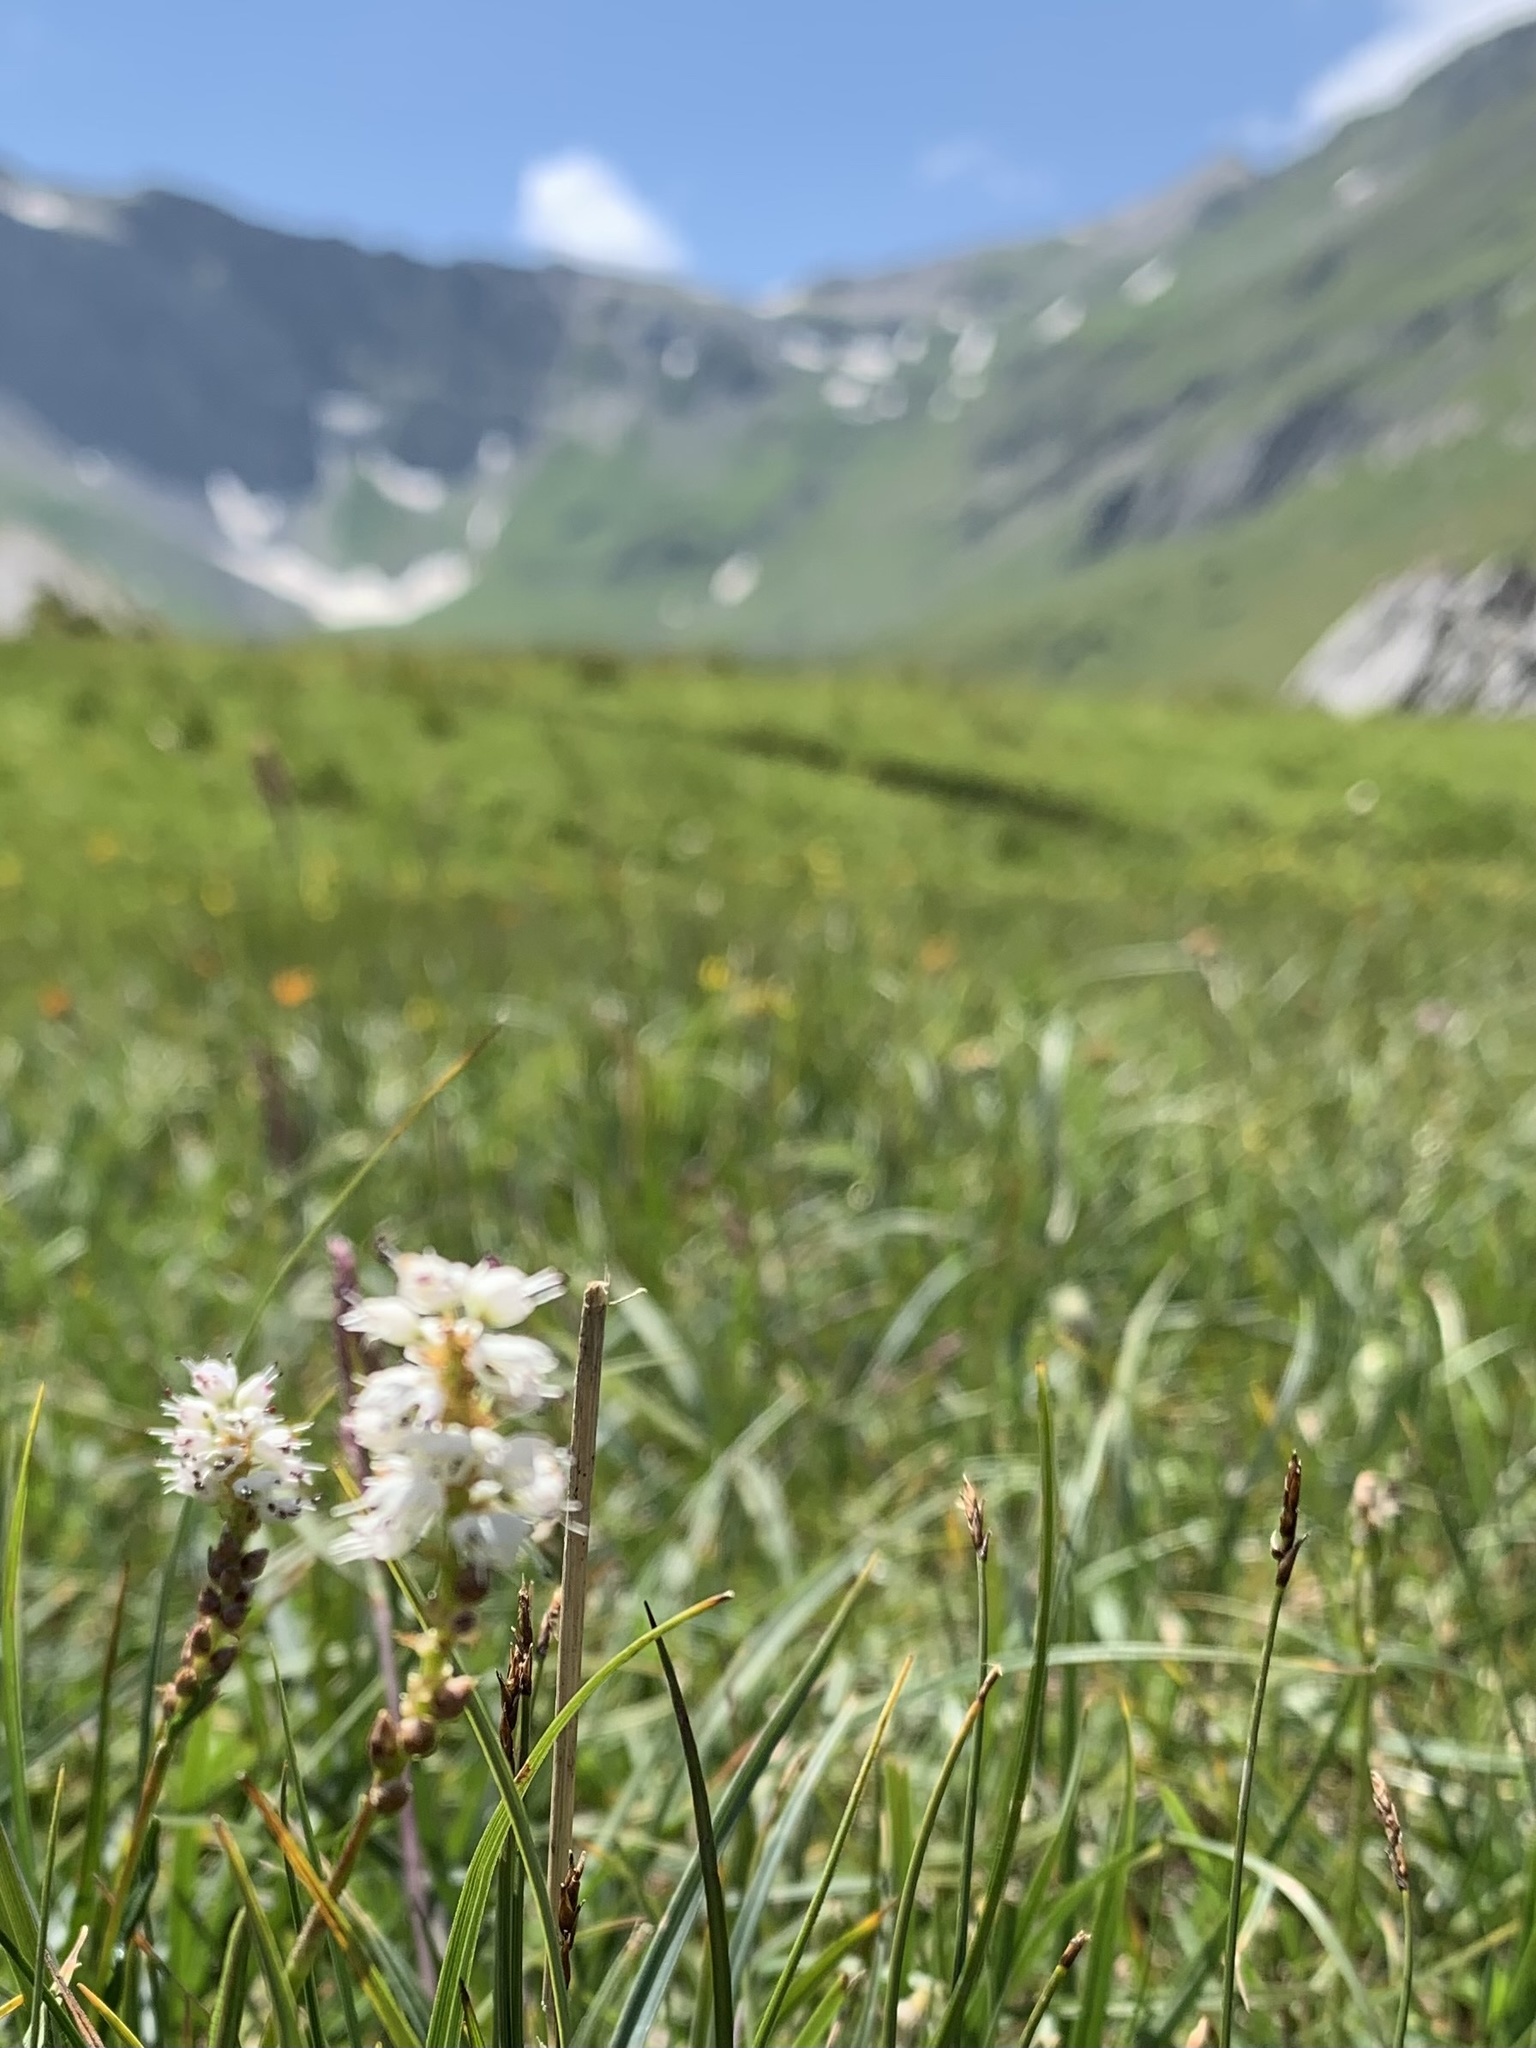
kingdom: Plantae
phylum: Tracheophyta
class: Magnoliopsida
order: Caryophyllales
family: Polygonaceae
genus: Bistorta
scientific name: Bistorta vivipara
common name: Alpine bistort
